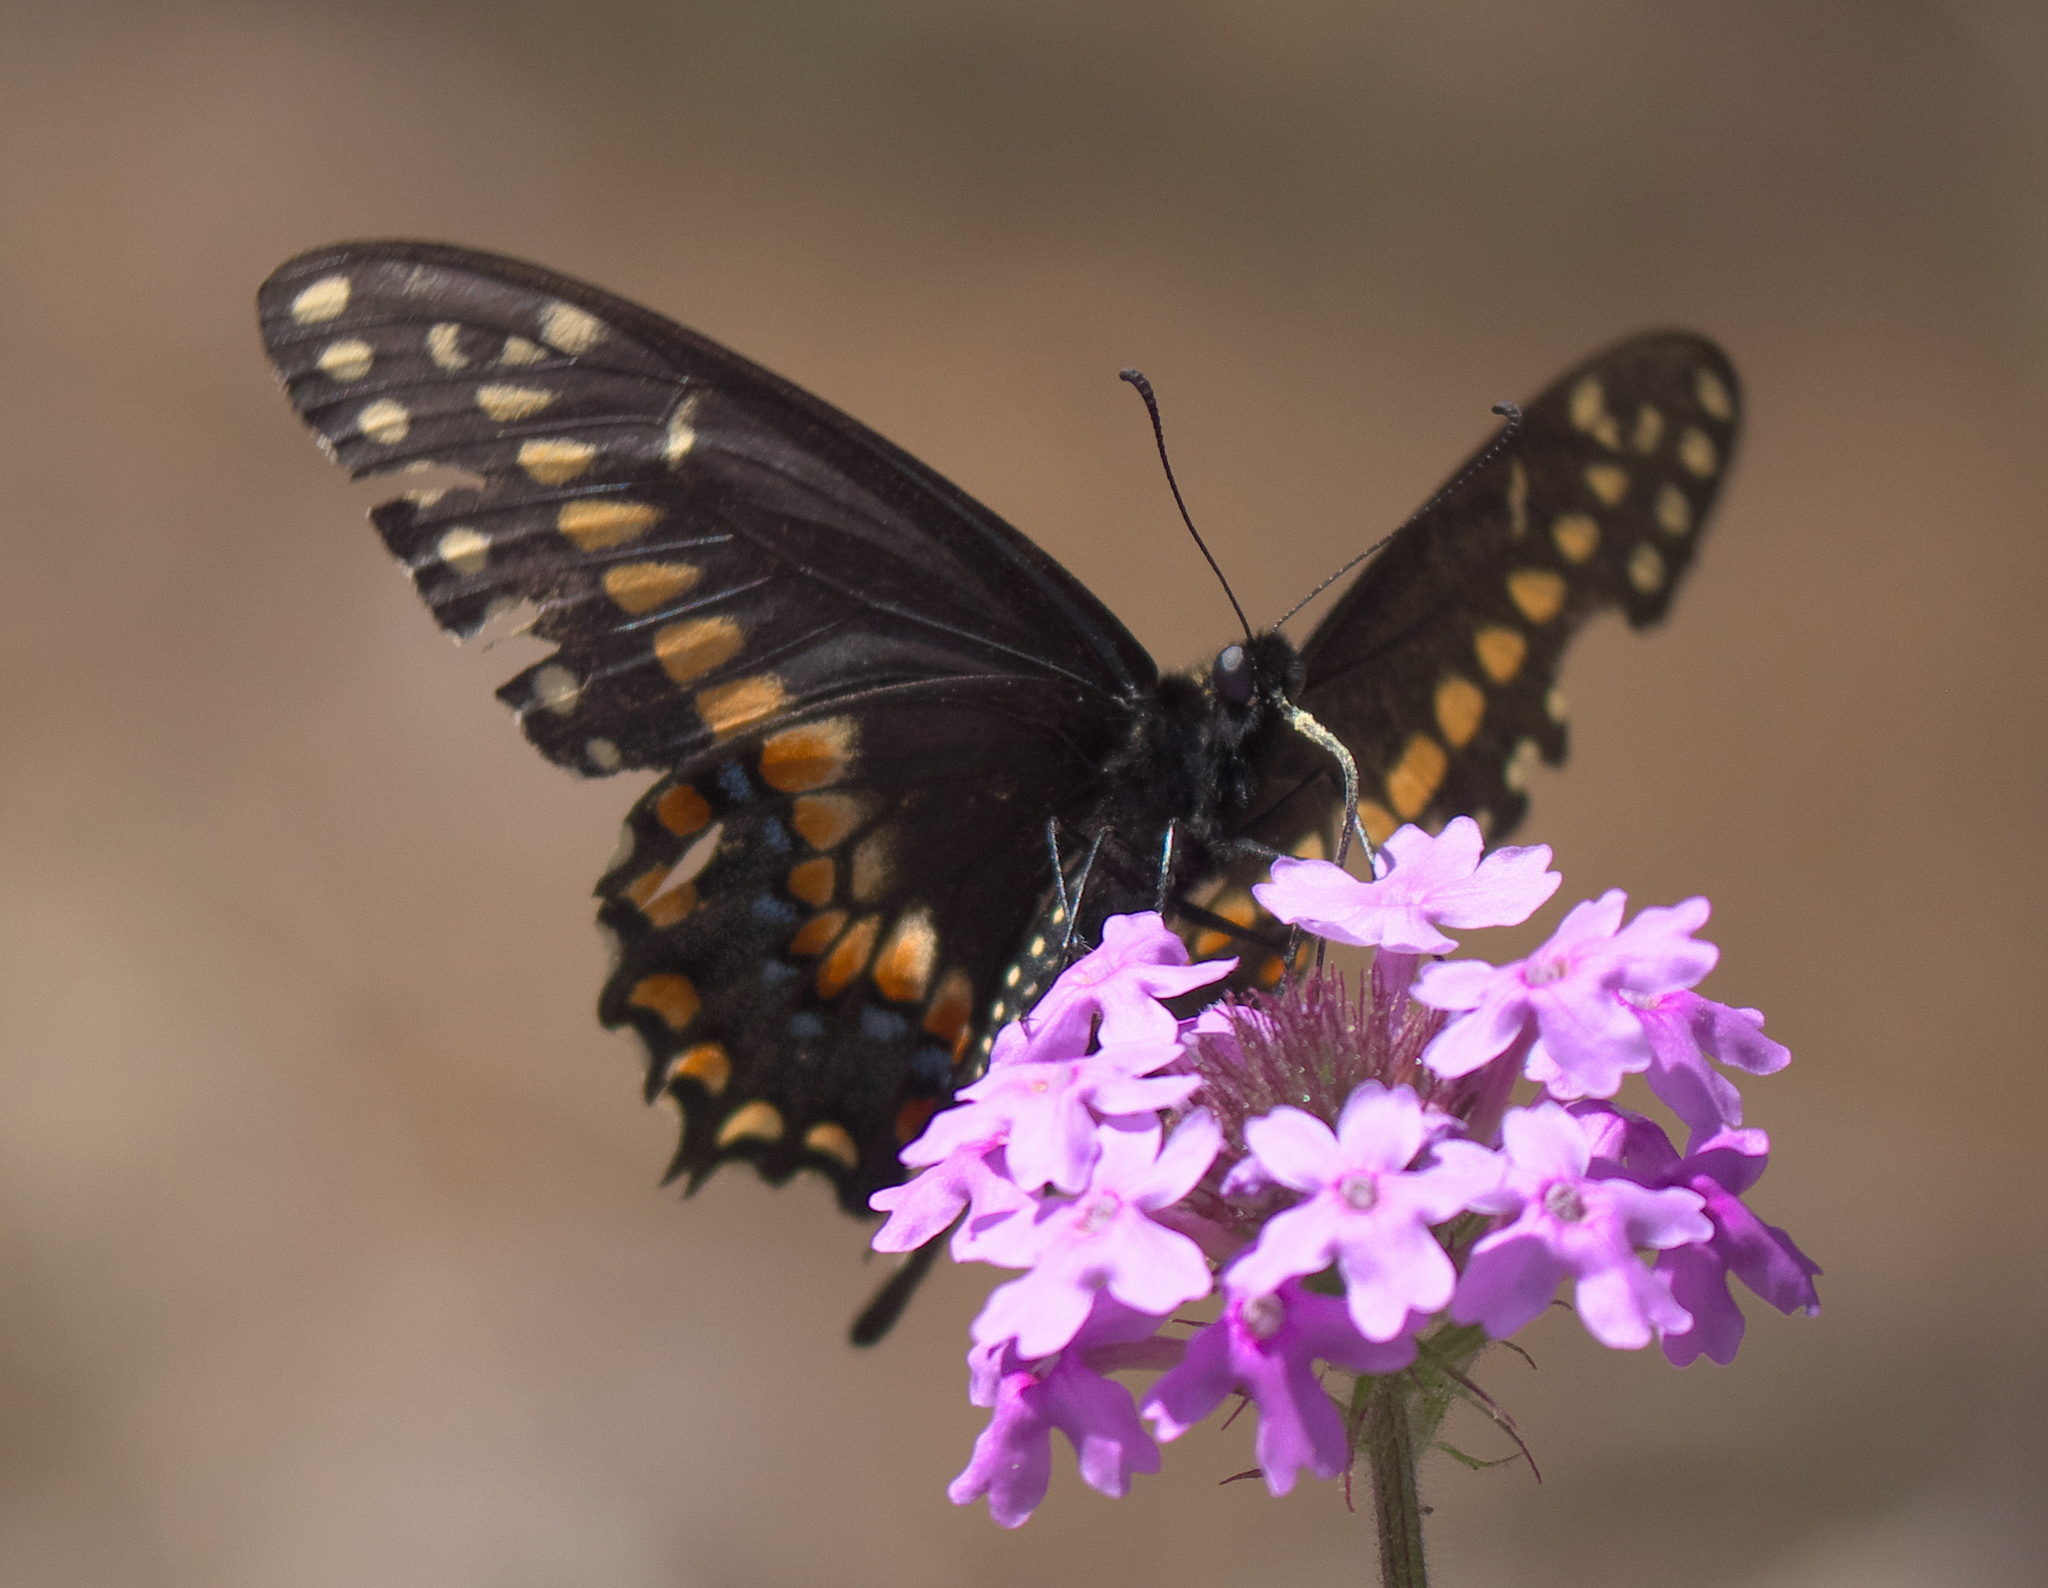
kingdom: Animalia
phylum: Arthropoda
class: Insecta
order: Lepidoptera
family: Papilionidae
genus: Papilio
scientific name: Papilio polyxenes
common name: Black swallowtail
